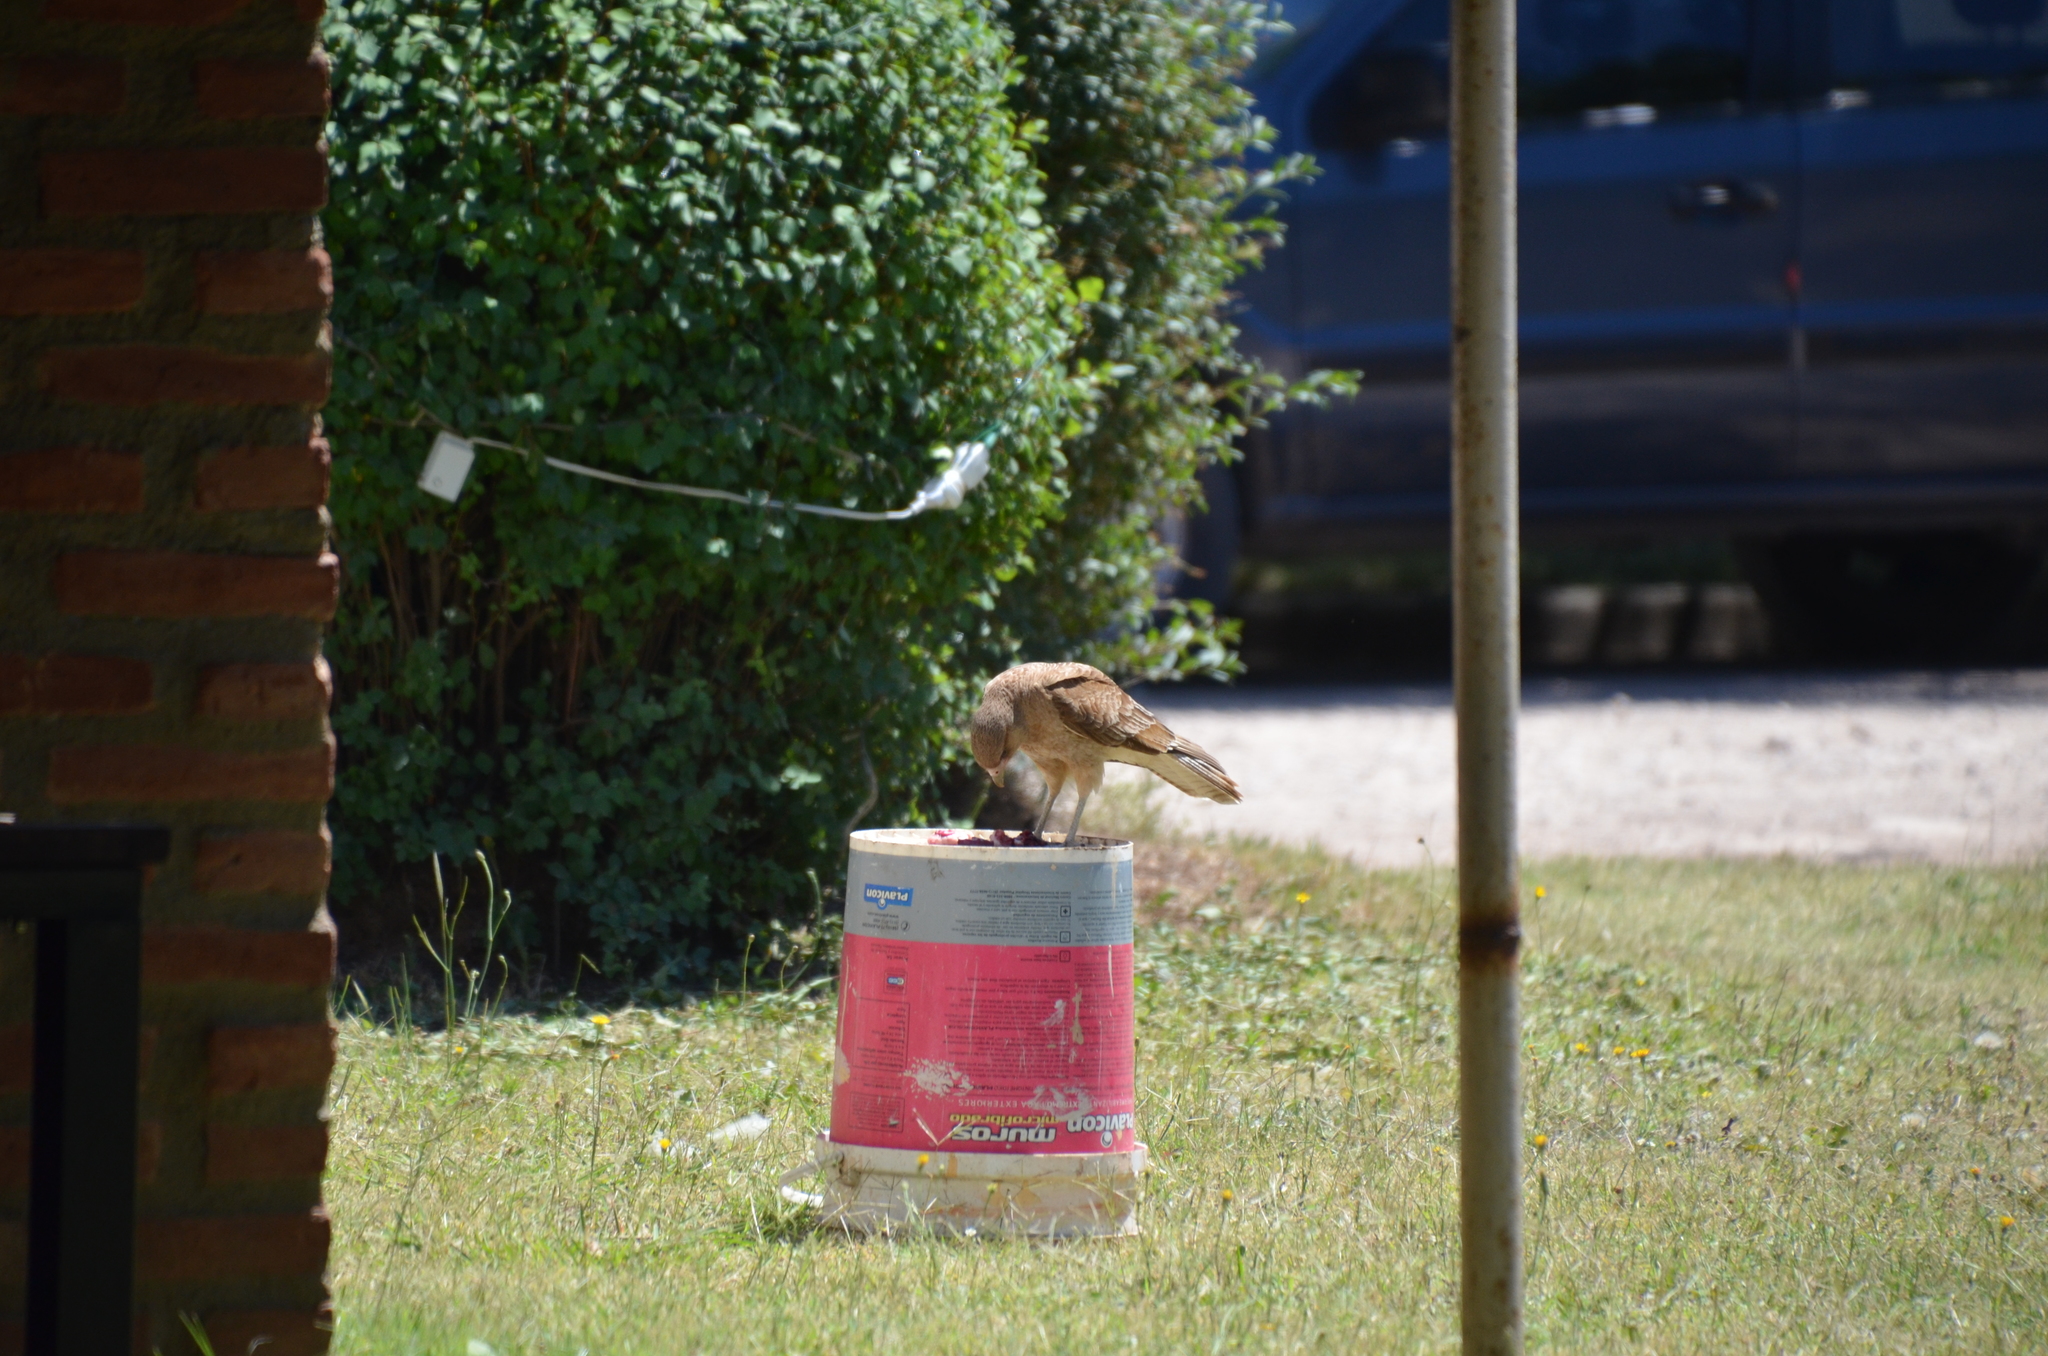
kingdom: Animalia
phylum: Chordata
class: Aves
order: Falconiformes
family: Falconidae
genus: Daptrius
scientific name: Daptrius
